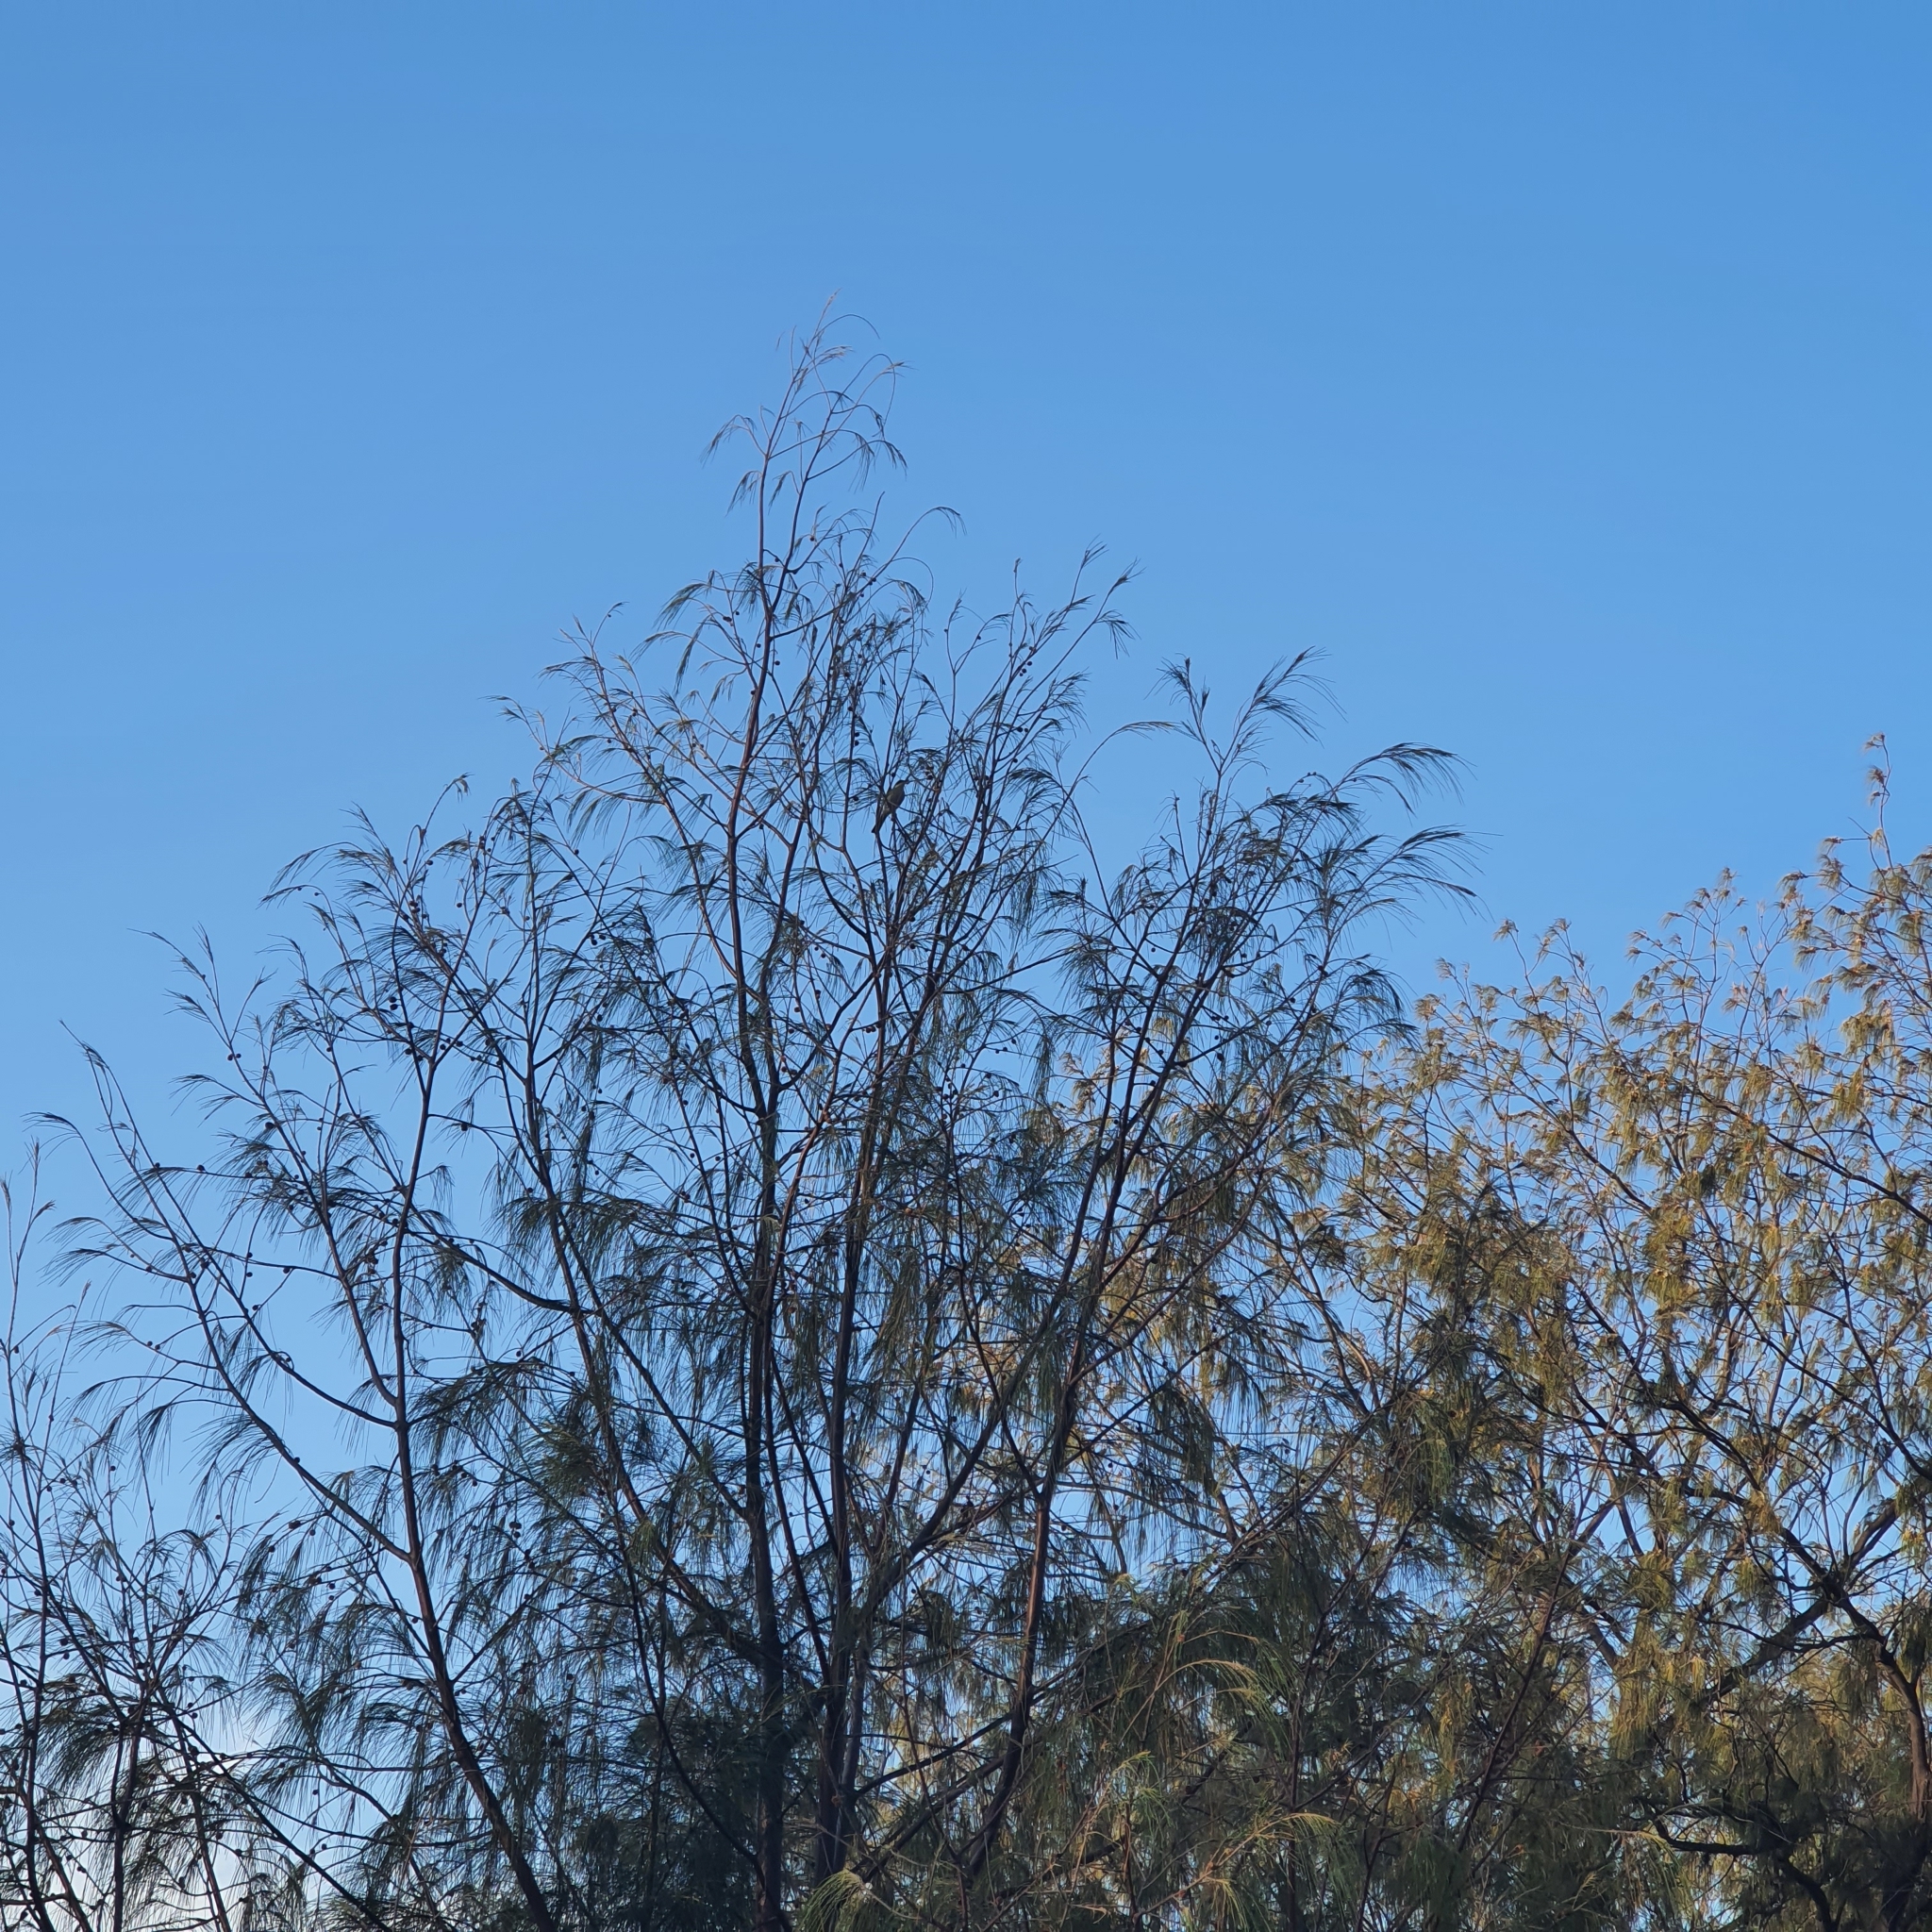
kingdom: Animalia
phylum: Chordata
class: Aves
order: Passeriformes
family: Meliphagidae
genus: Gavicalis
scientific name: Gavicalis virescens
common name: Singing honeyeater
